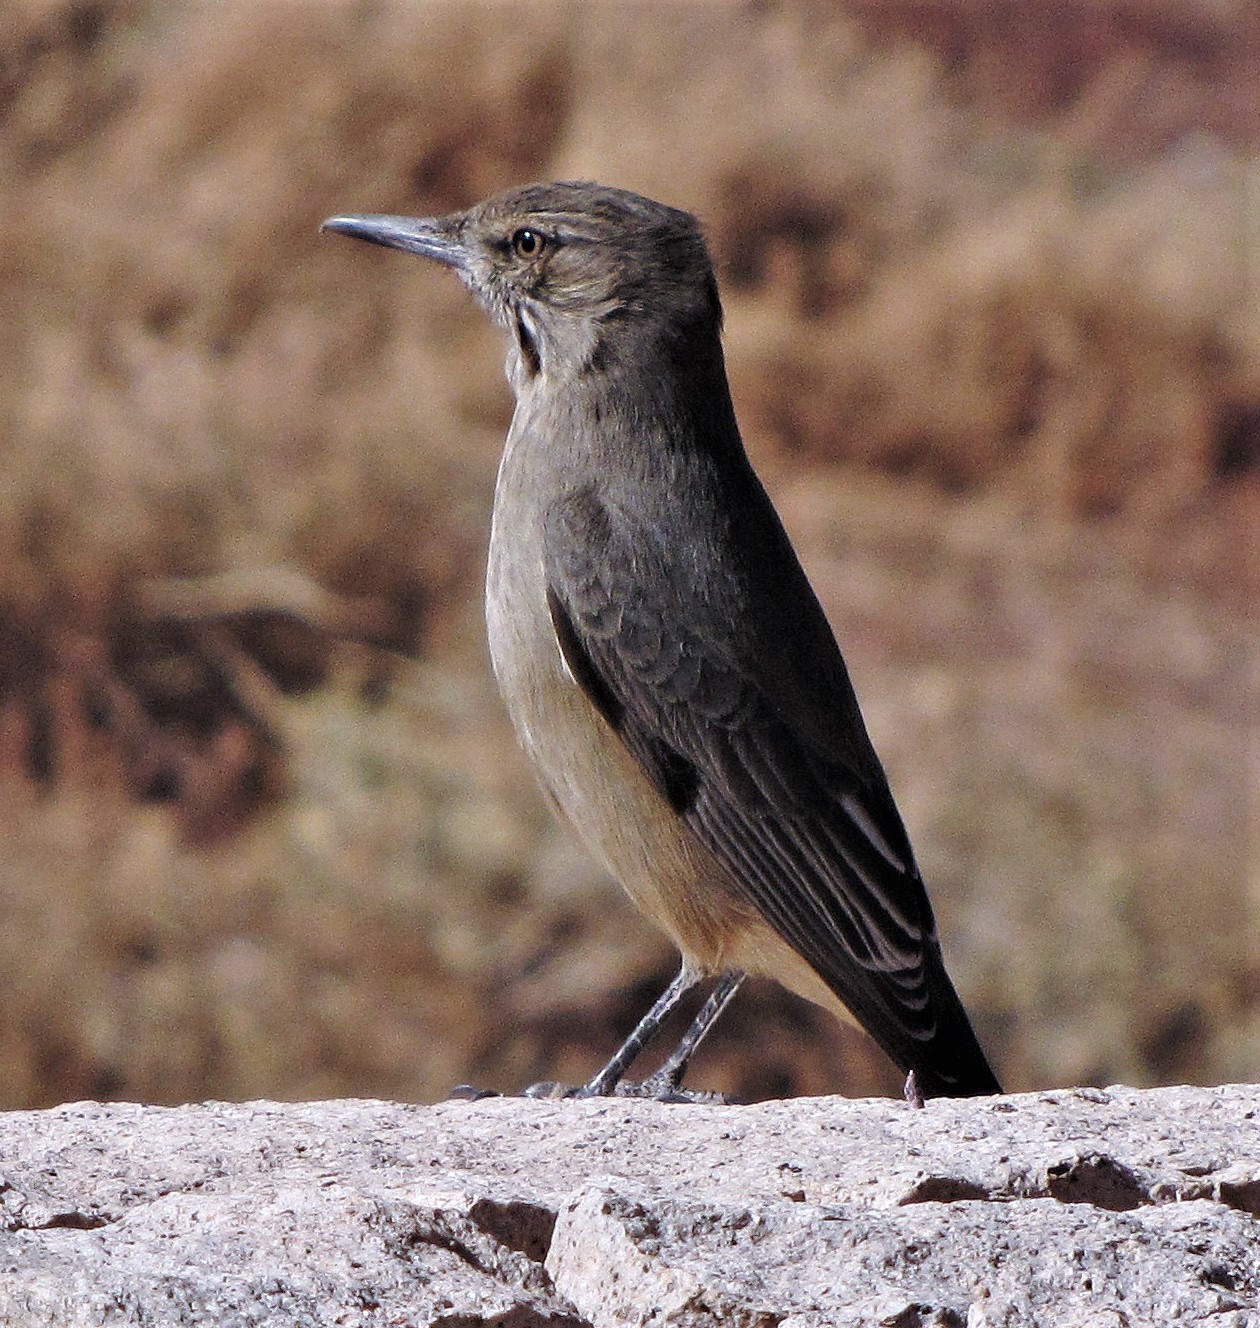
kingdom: Animalia
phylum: Chordata
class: Aves
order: Passeriformes
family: Tyrannidae
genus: Agriornis
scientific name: Agriornis montanus
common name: Black-billed shrike-tyrant
